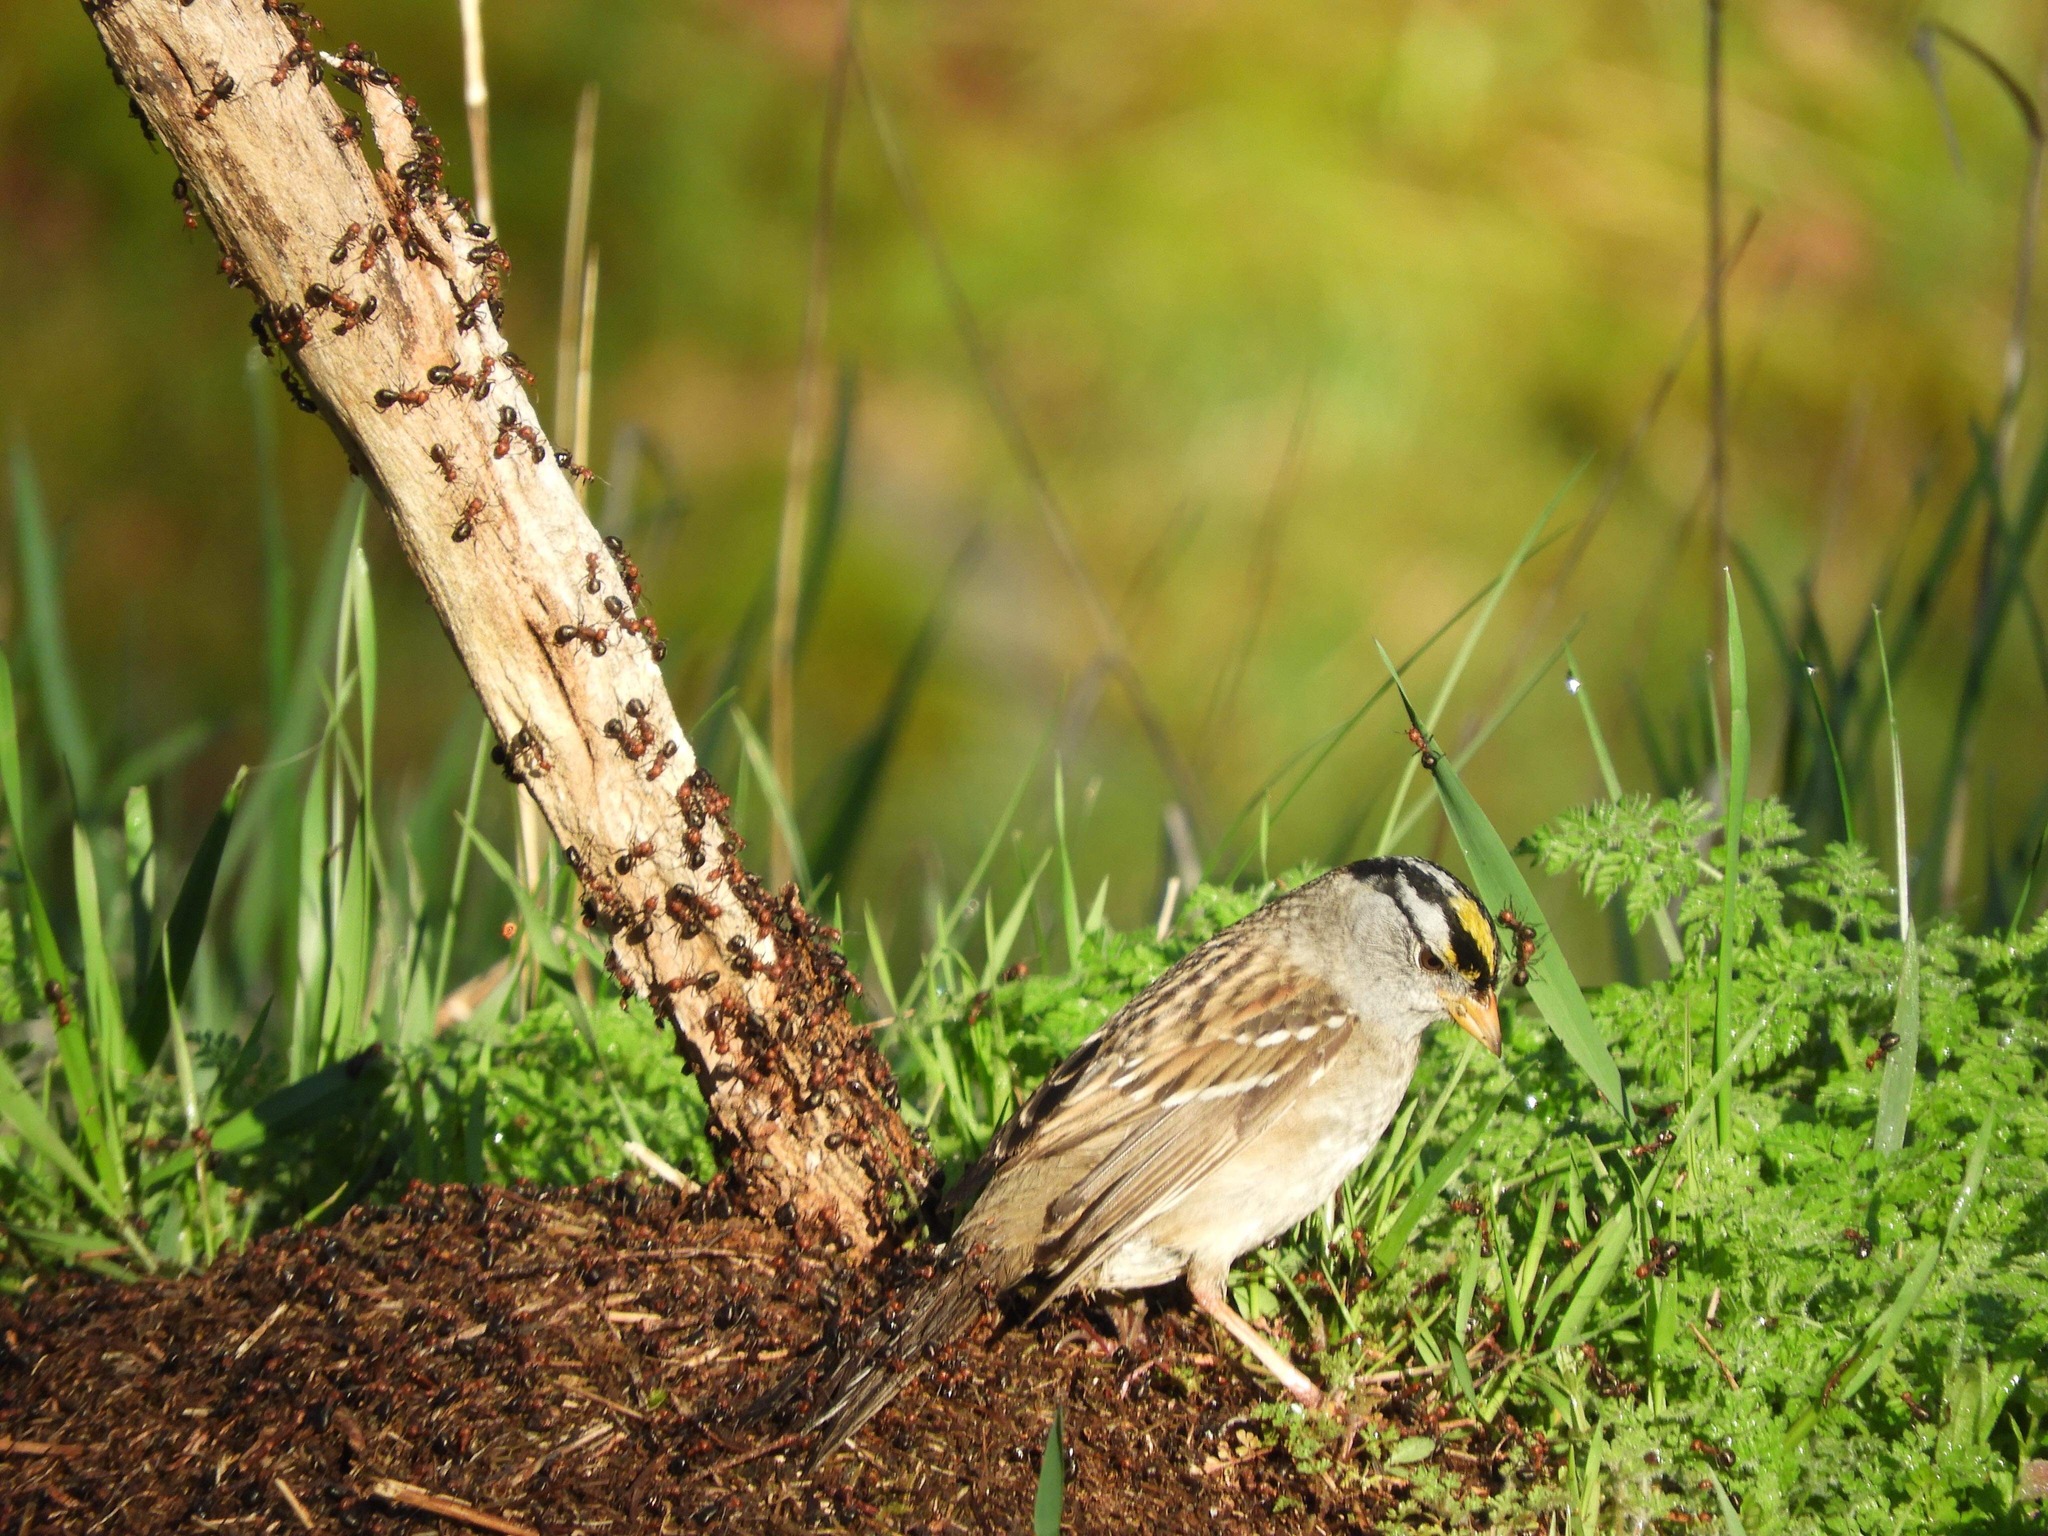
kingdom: Animalia
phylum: Chordata
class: Aves
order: Passeriformes
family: Passerellidae
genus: Zonotrichia
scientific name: Zonotrichia
